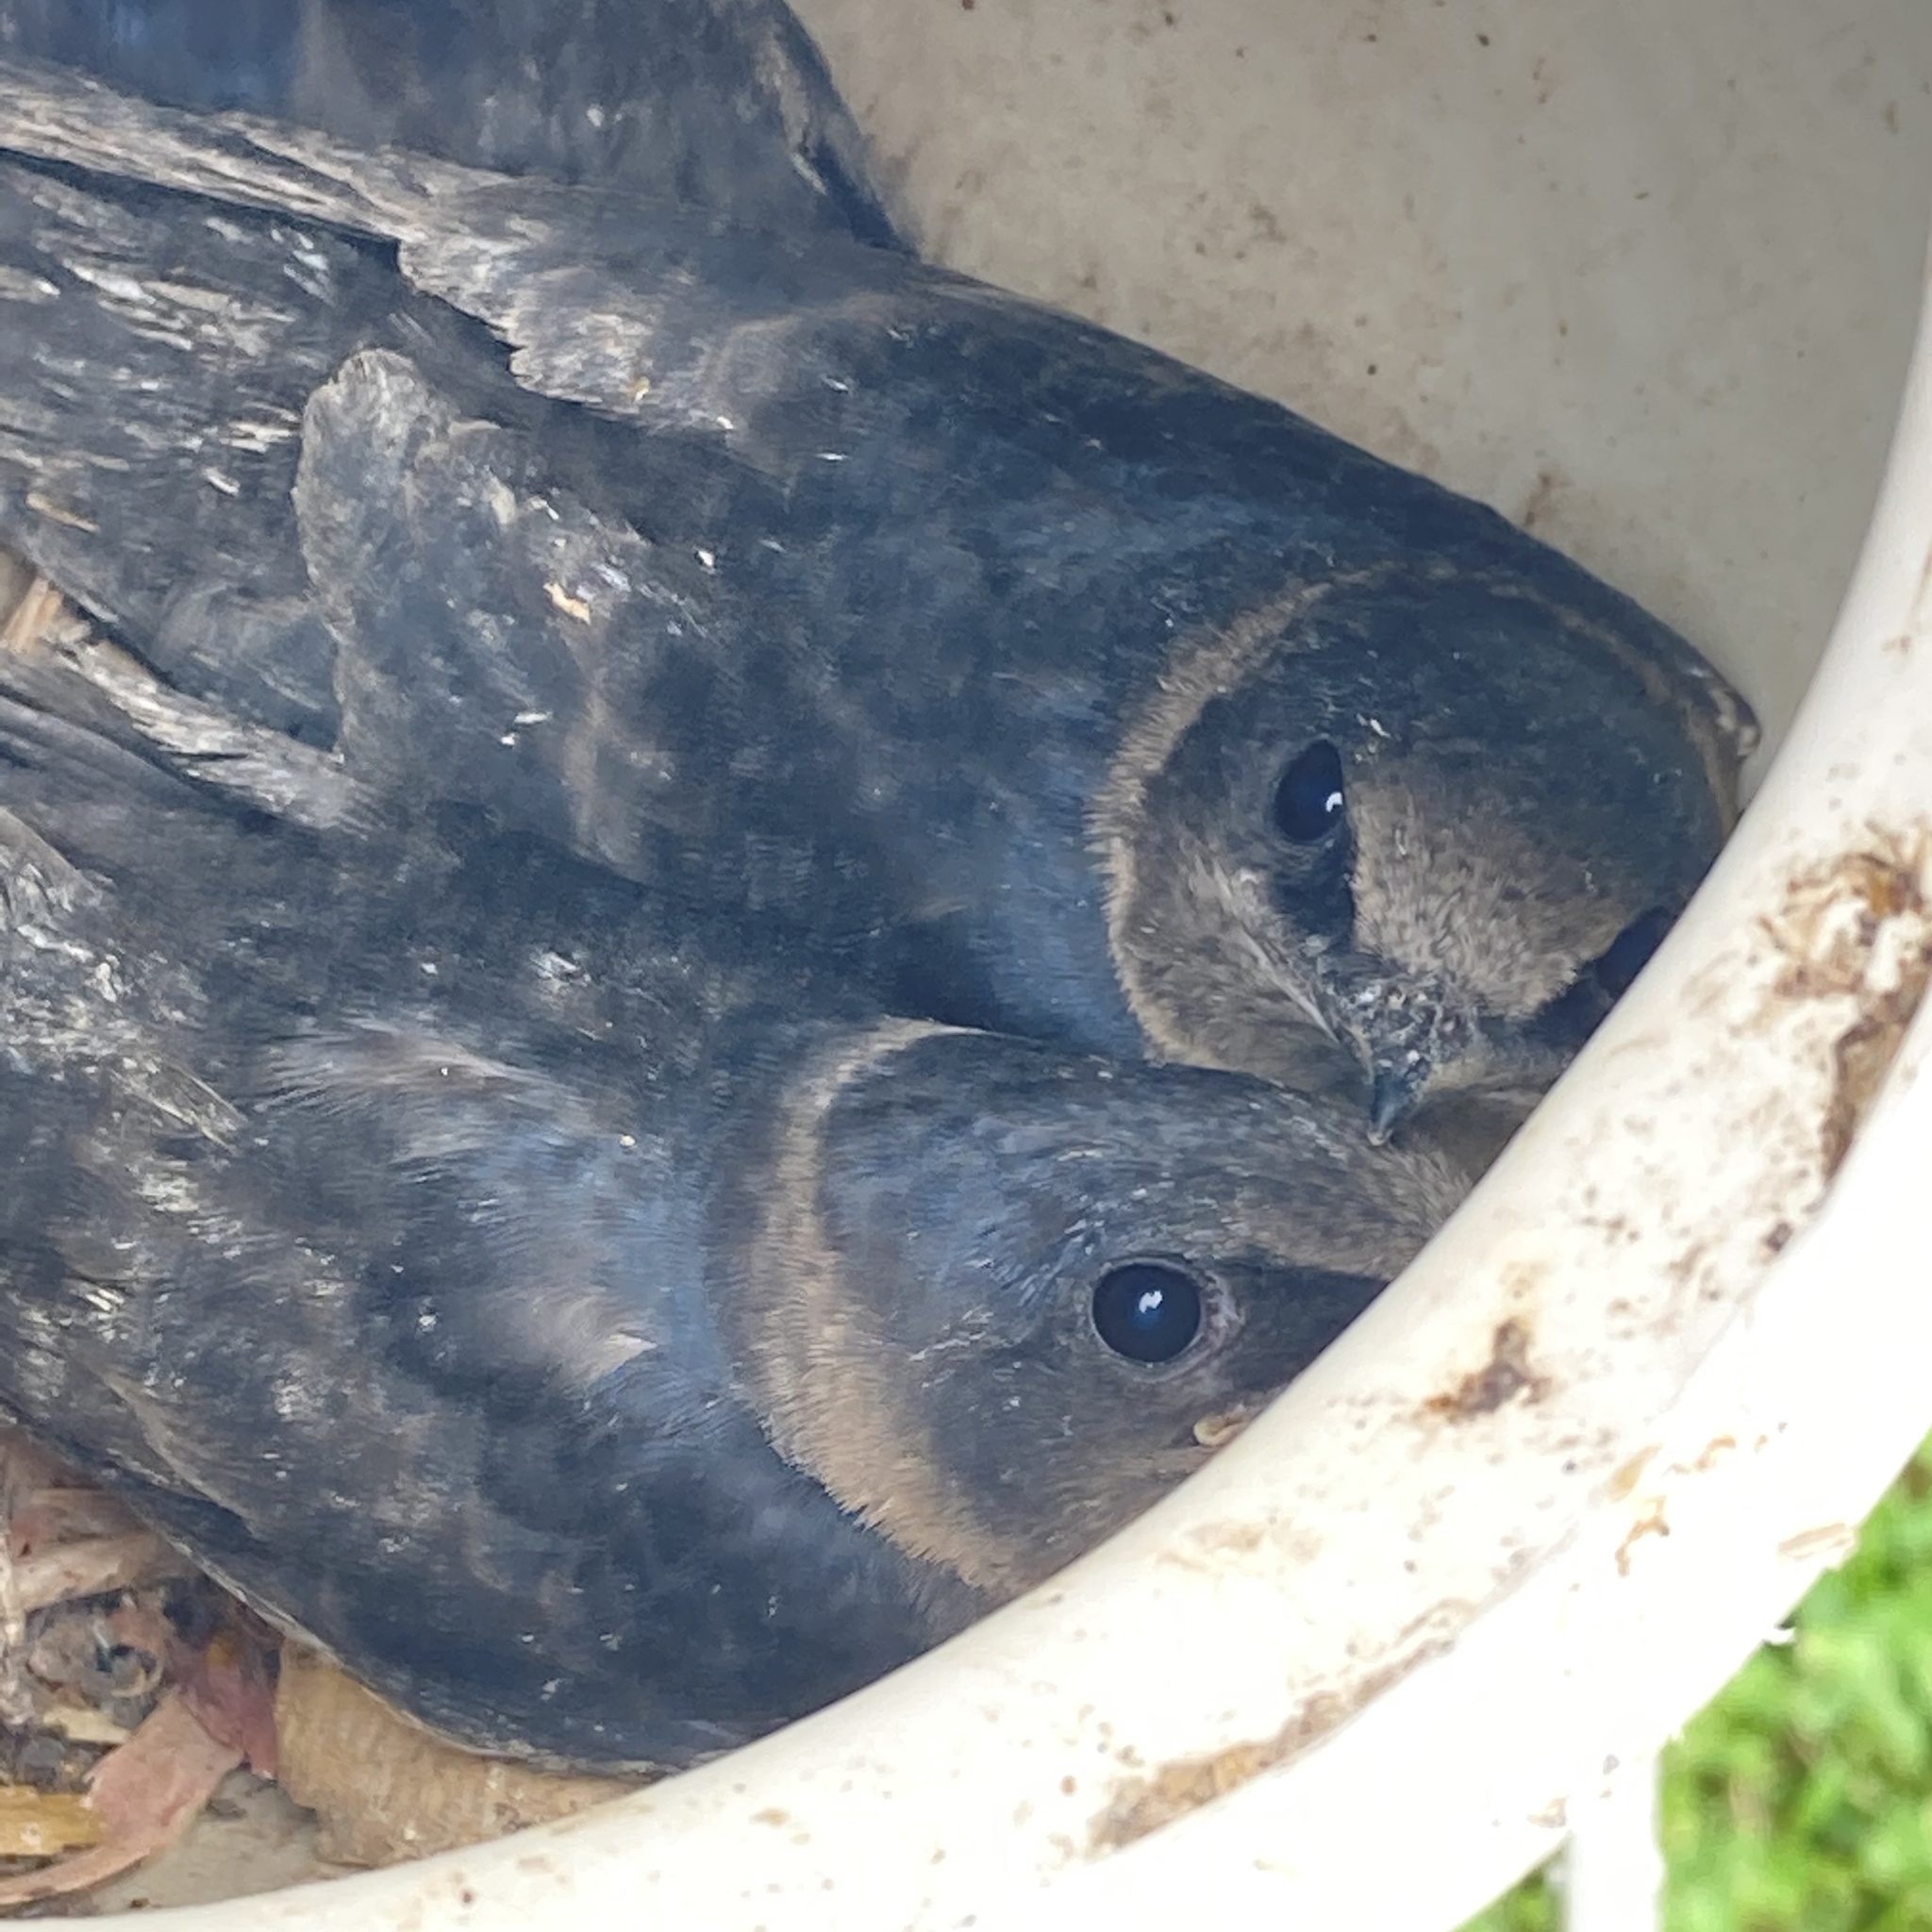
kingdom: Animalia
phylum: Chordata
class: Aves
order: Passeriformes
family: Hirundinidae
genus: Progne
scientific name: Progne subis
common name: Purple martin
